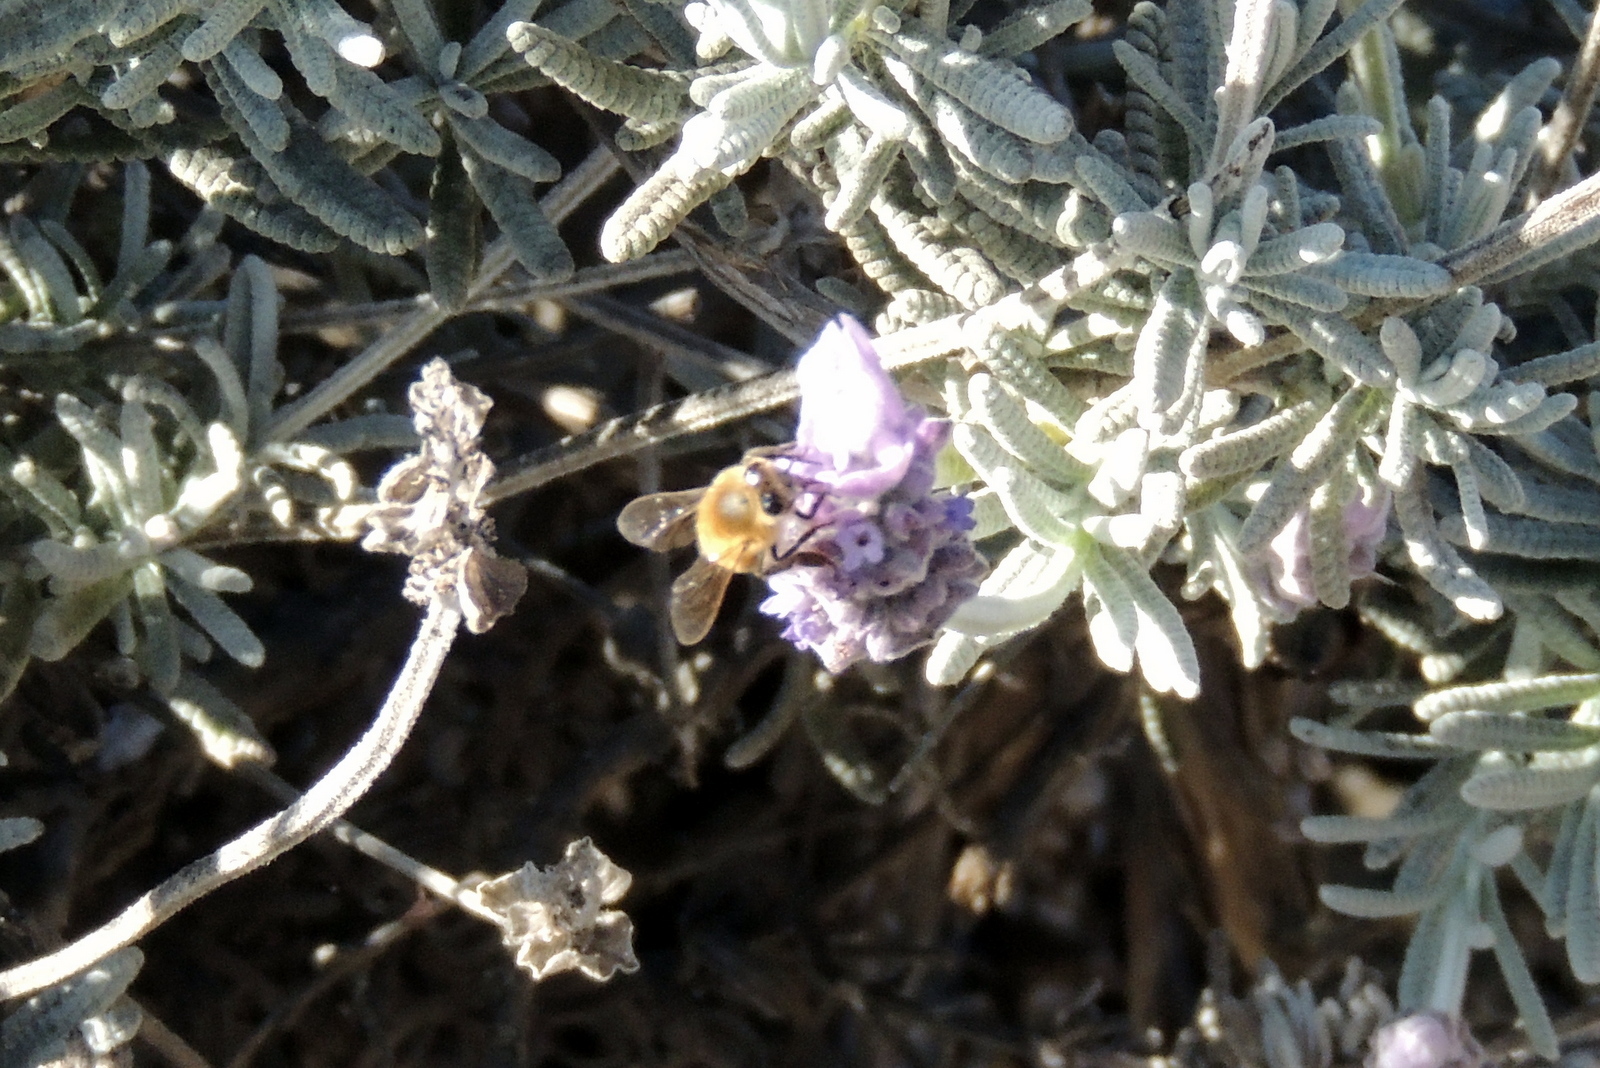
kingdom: Animalia
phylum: Arthropoda
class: Insecta
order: Hymenoptera
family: Apidae
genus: Apis
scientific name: Apis mellifera
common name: Honey bee
